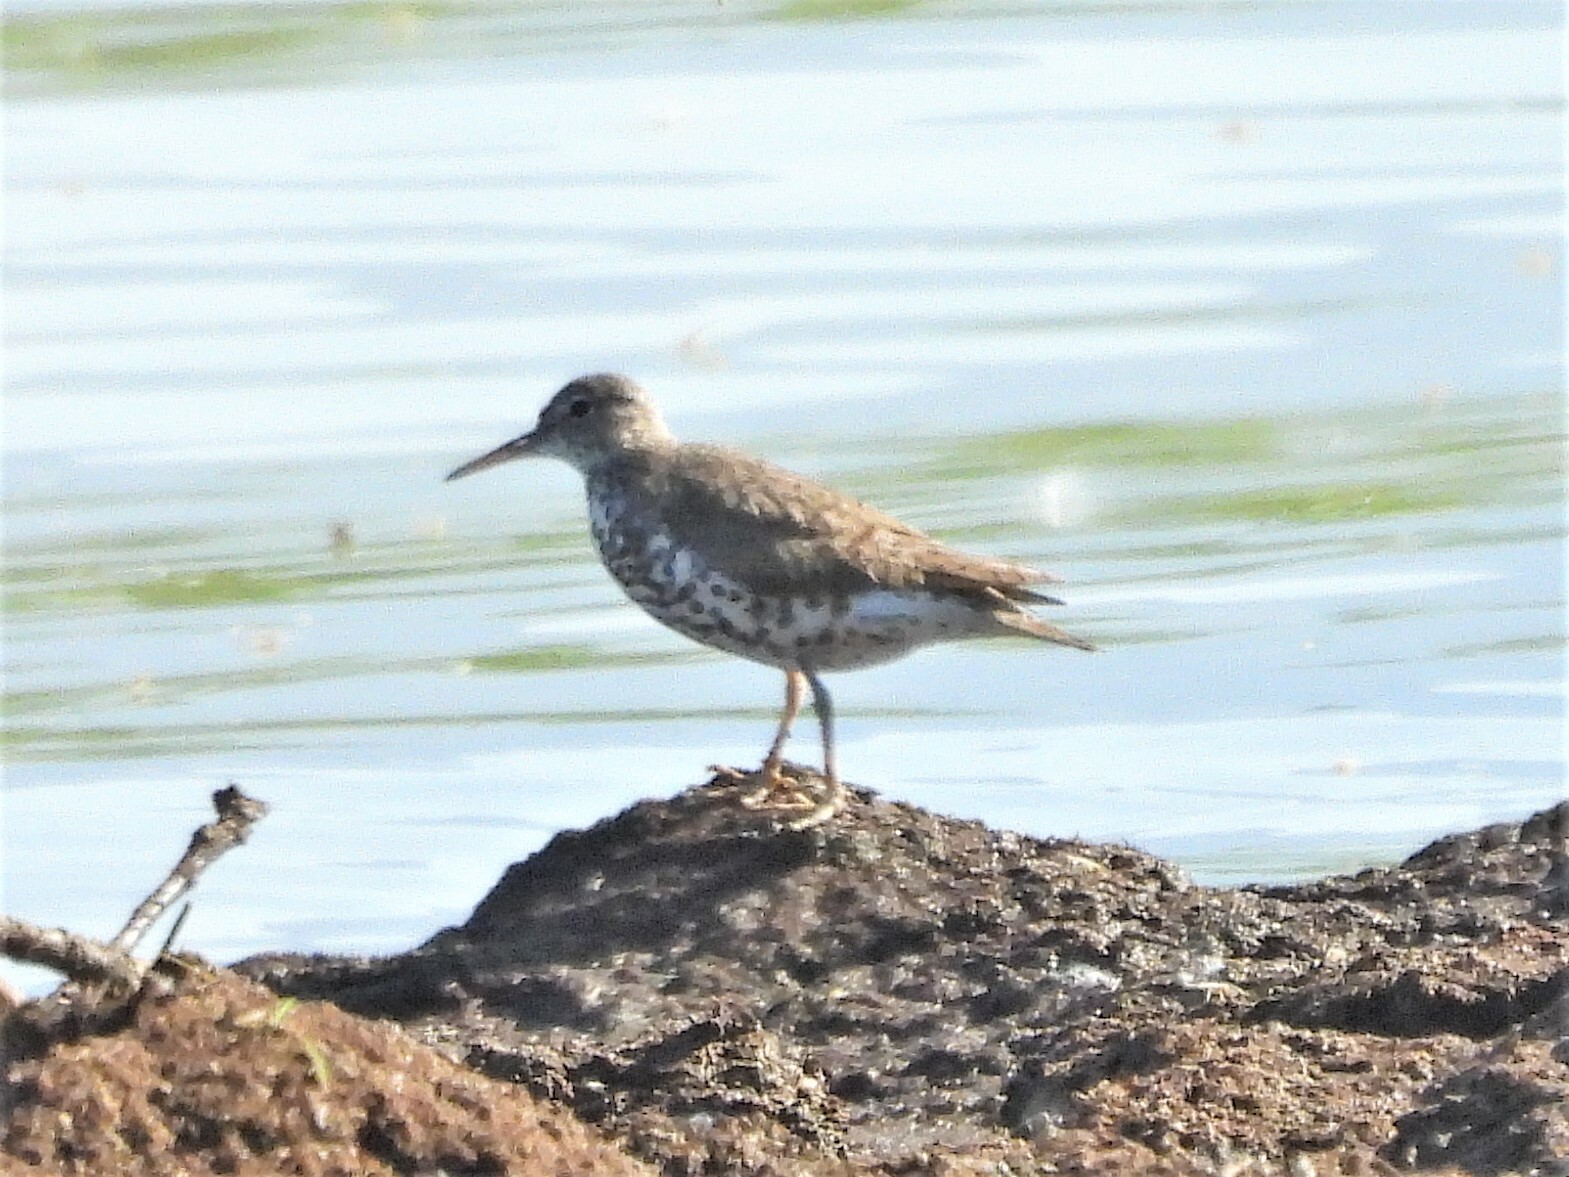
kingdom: Animalia
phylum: Chordata
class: Aves
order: Charadriiformes
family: Scolopacidae
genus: Actitis
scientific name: Actitis macularius
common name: Spotted sandpiper
